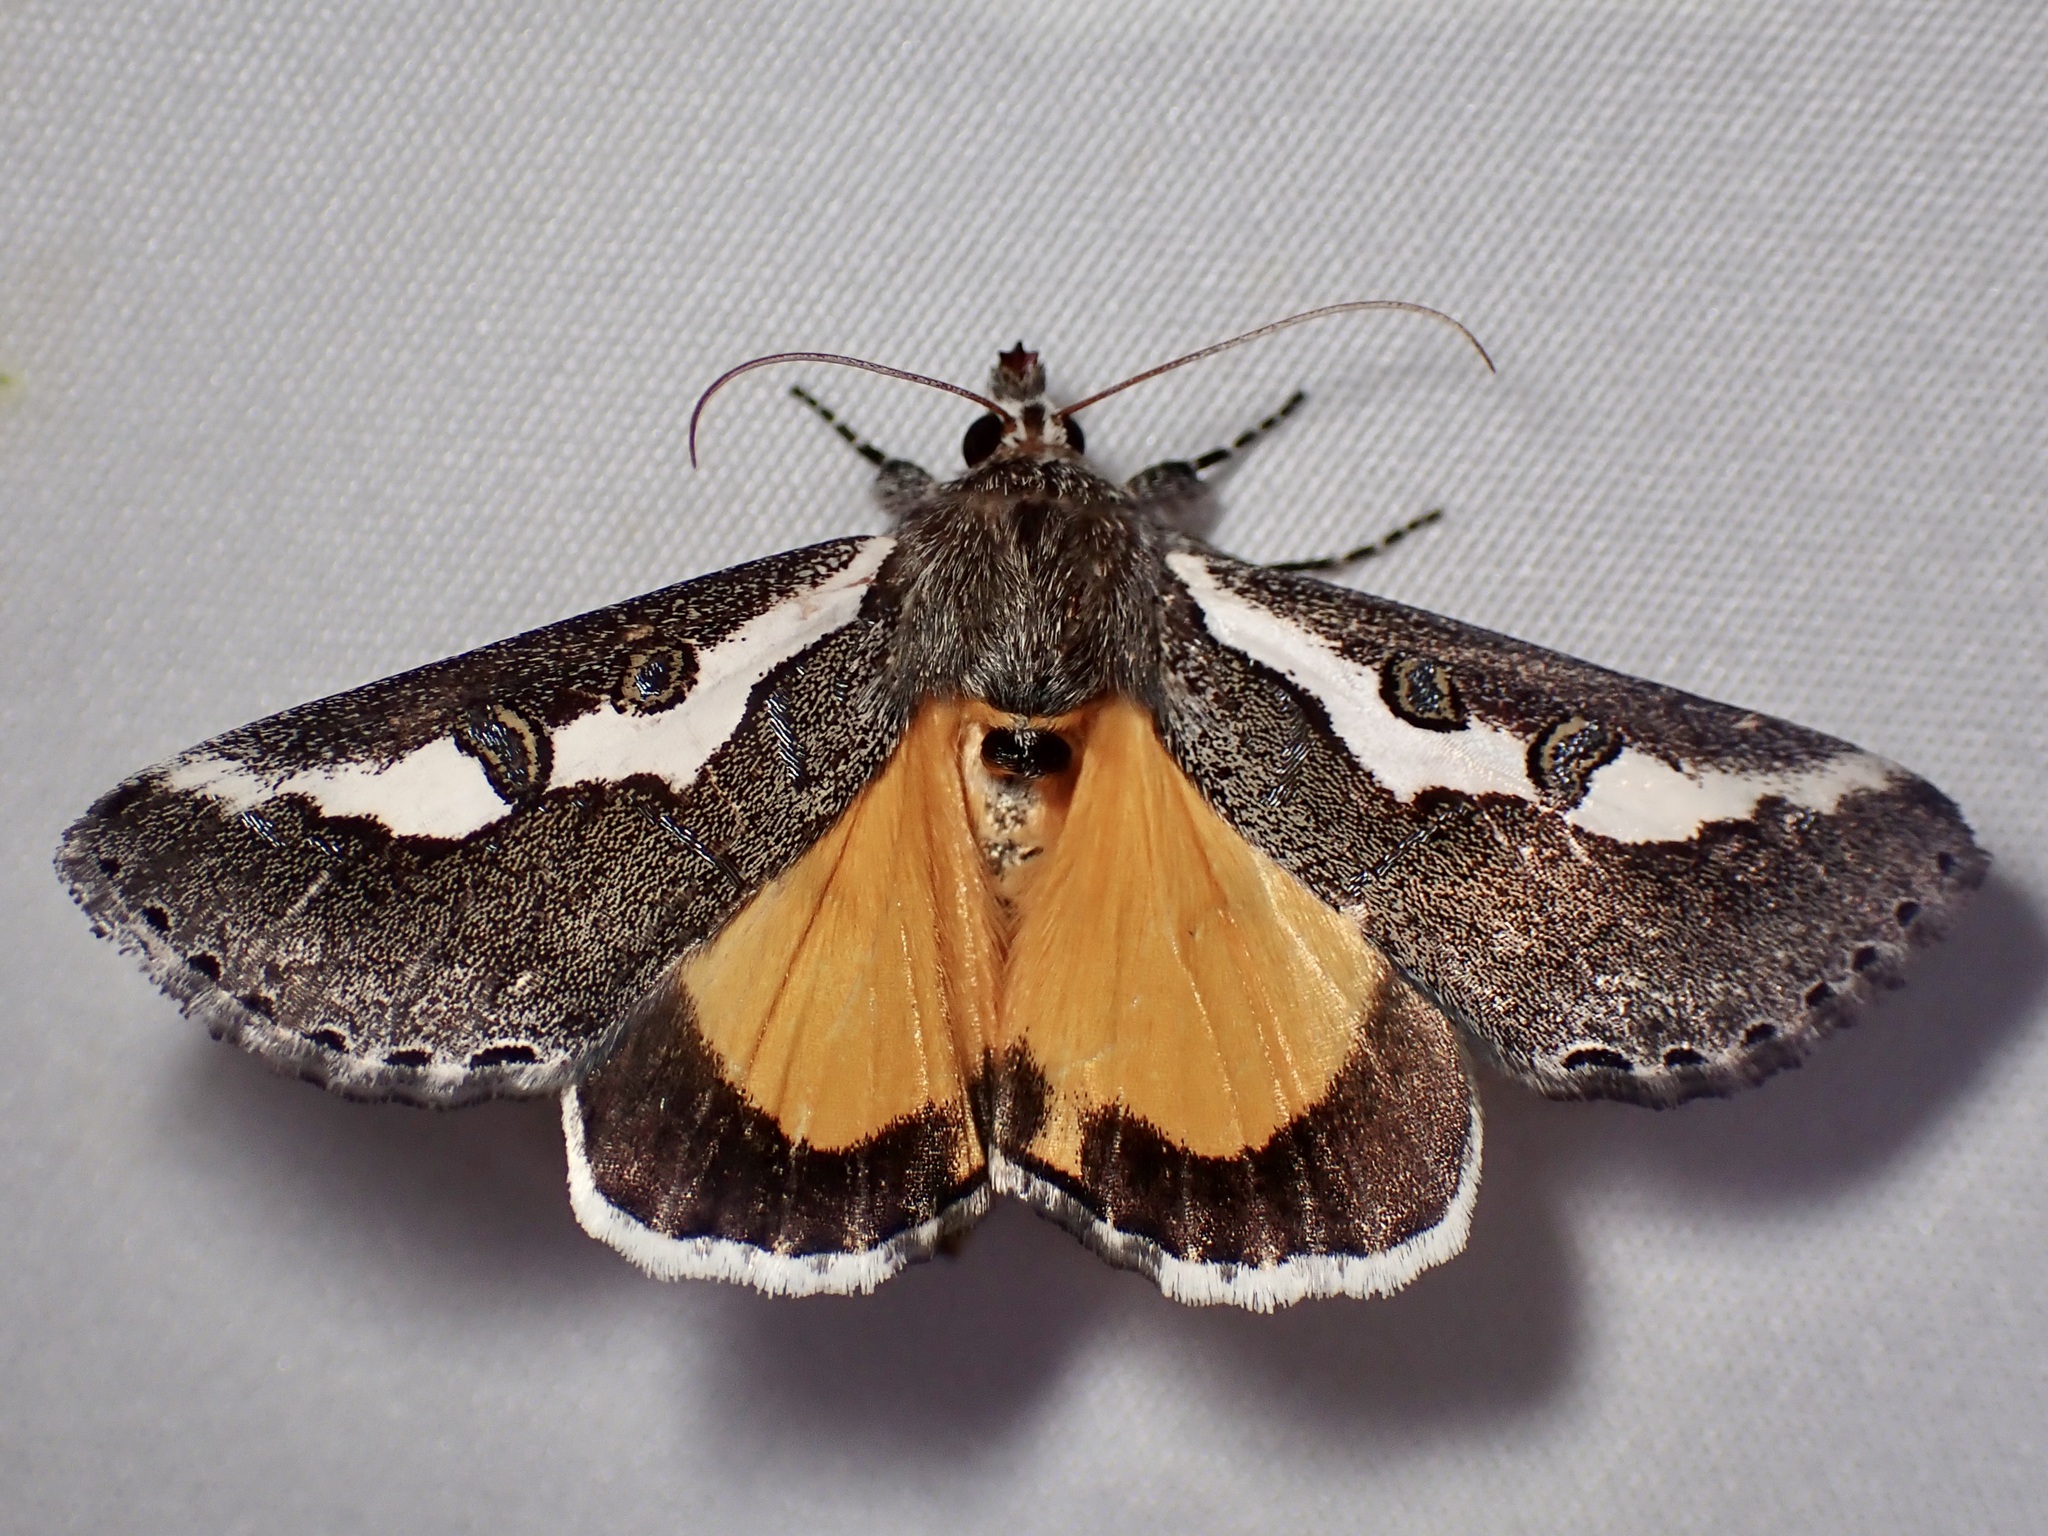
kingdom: Animalia
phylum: Arthropoda
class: Insecta
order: Lepidoptera
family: Noctuidae
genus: Euscirrhopterus
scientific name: Euscirrhopterus gloveri
